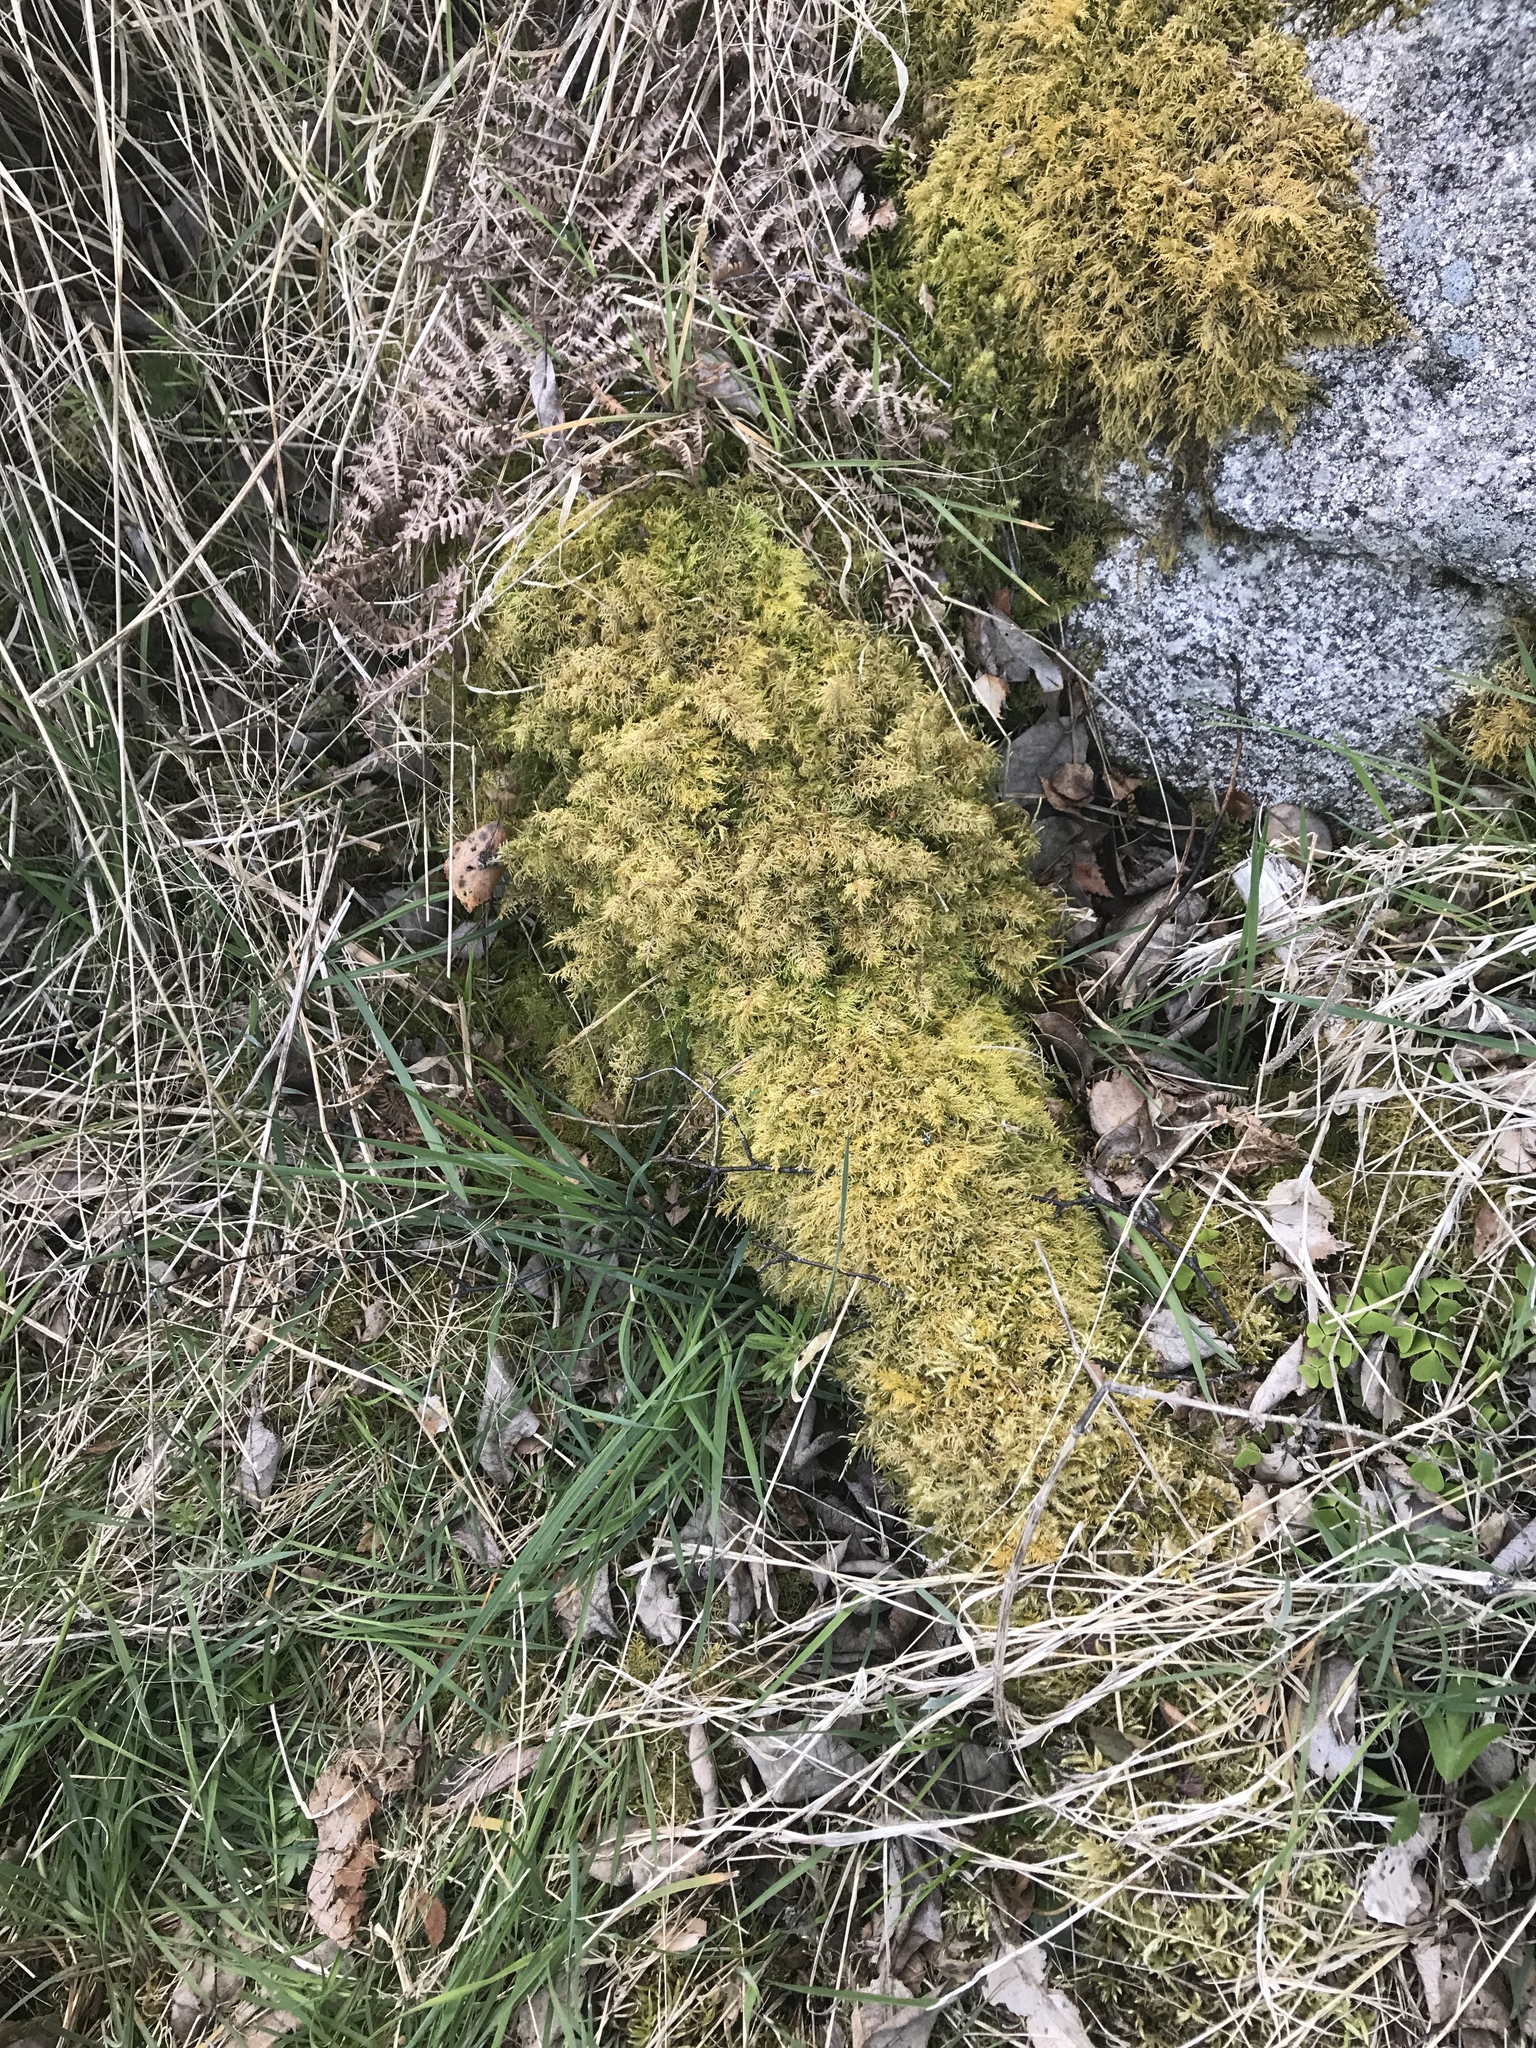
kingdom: Plantae
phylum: Bryophyta
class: Bryopsida
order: Hypnales
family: Thuidiaceae
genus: Thuidium
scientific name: Thuidium tamariscinum
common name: Common tamarisk-moss
